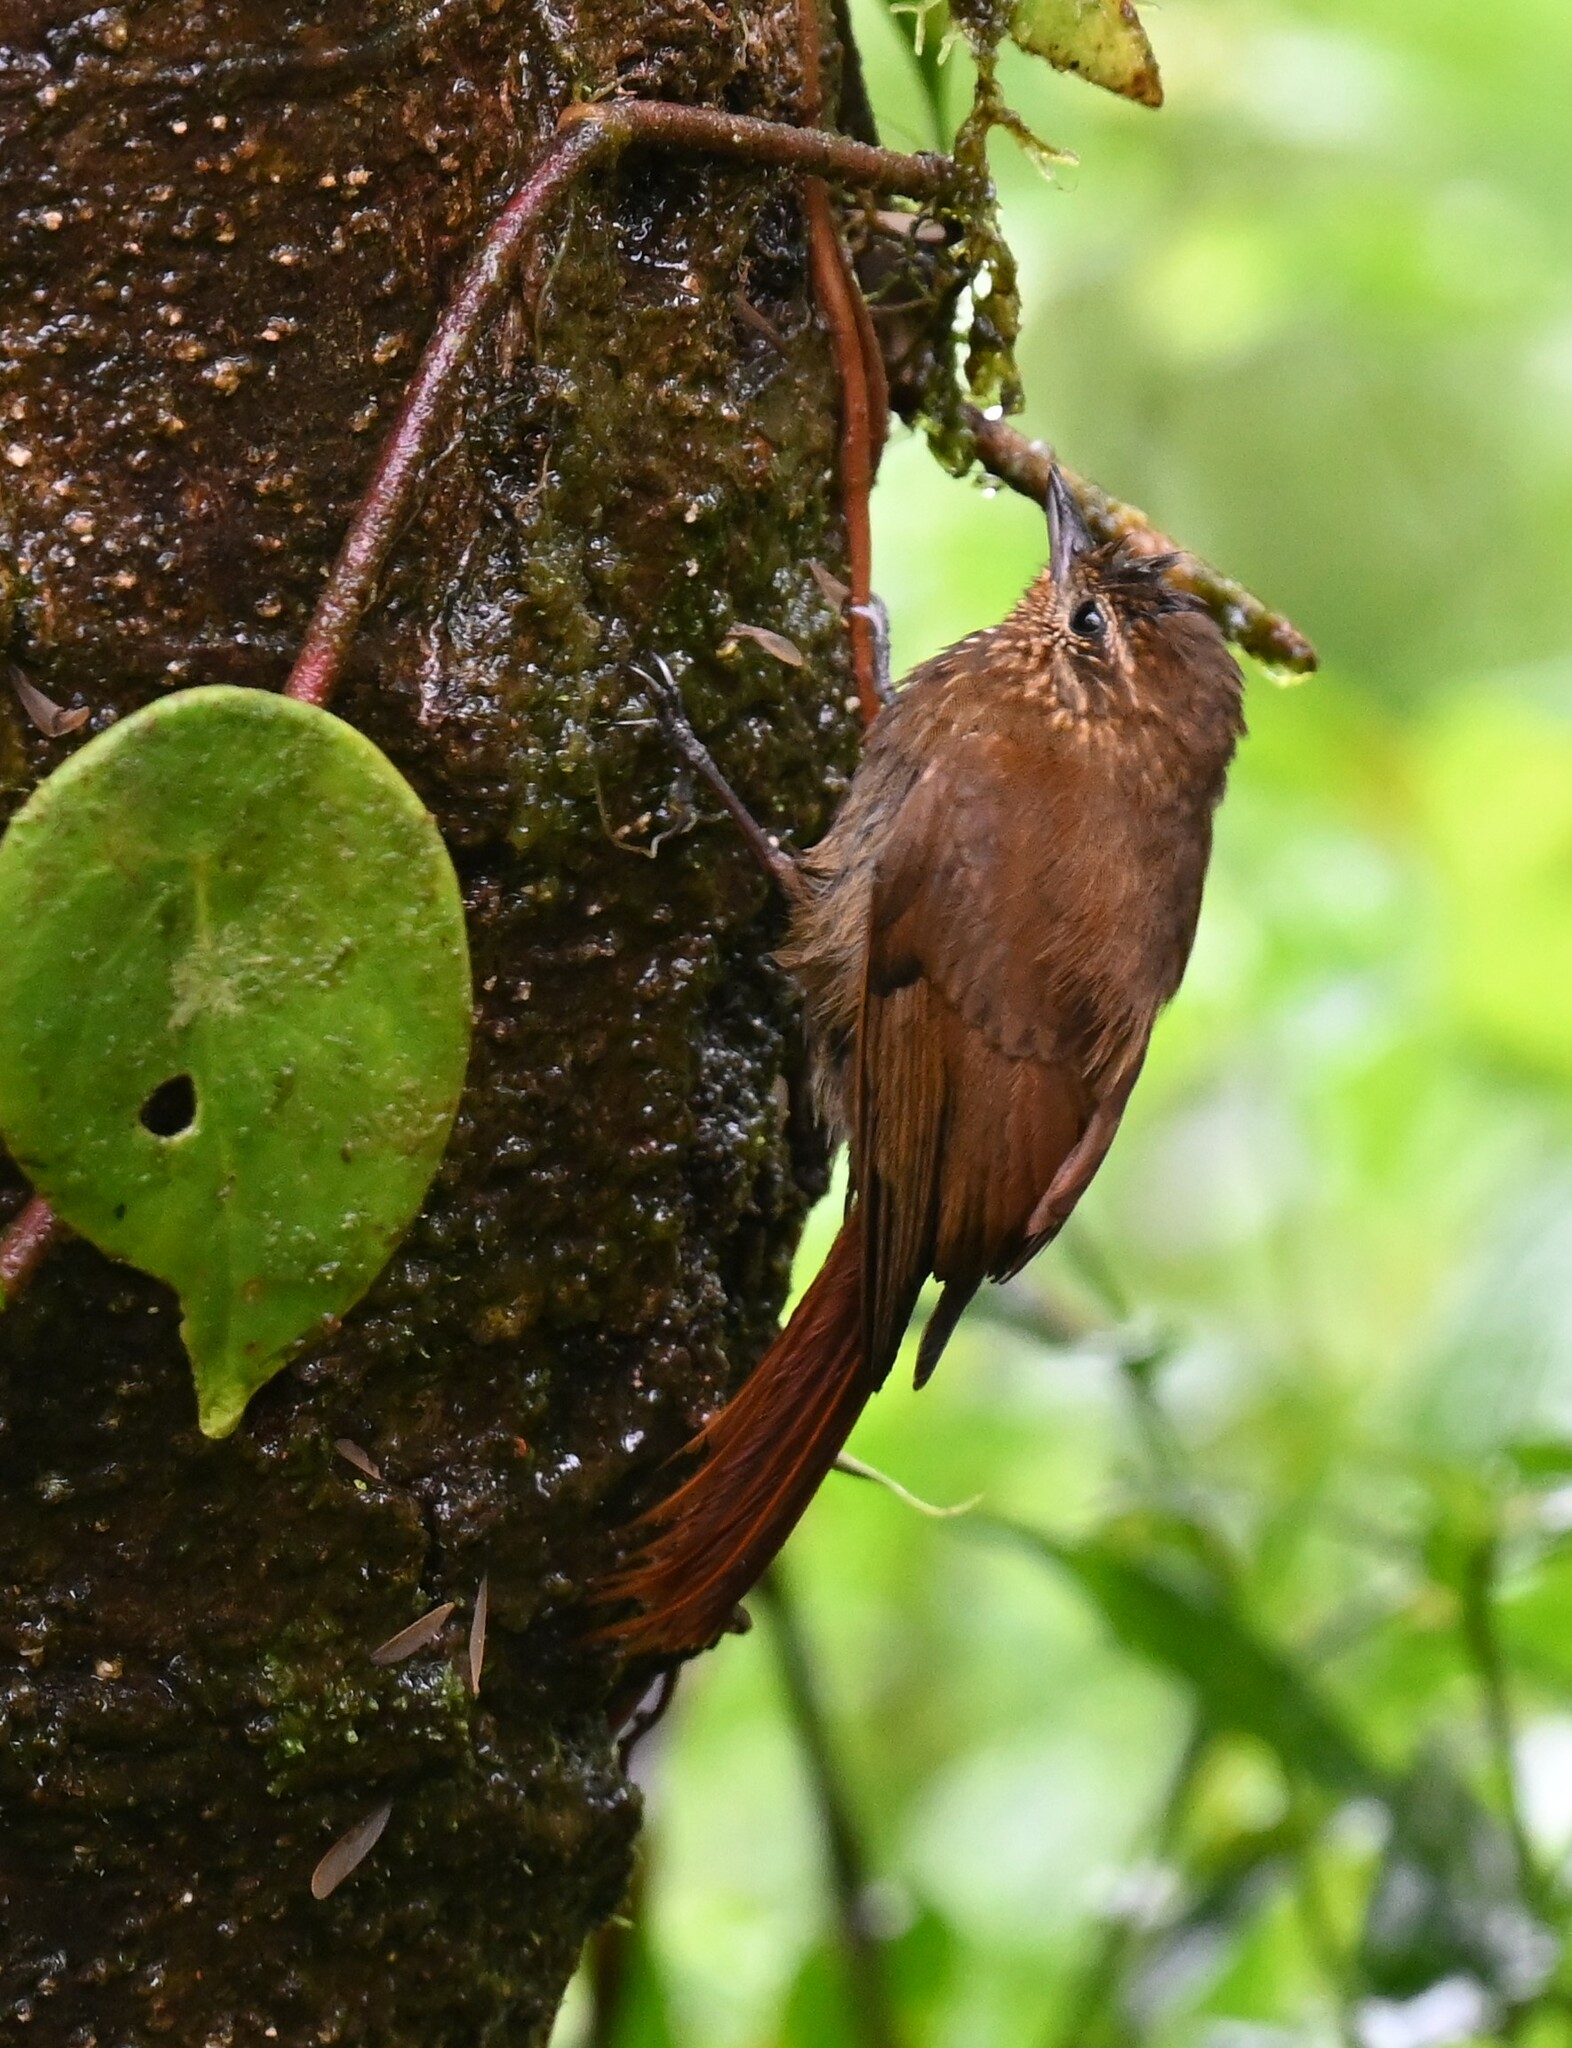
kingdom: Animalia
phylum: Chordata
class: Aves
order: Passeriformes
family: Furnariidae
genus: Glyphorynchus
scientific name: Glyphorynchus spirurus
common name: Wedge-billed woodcreeper
